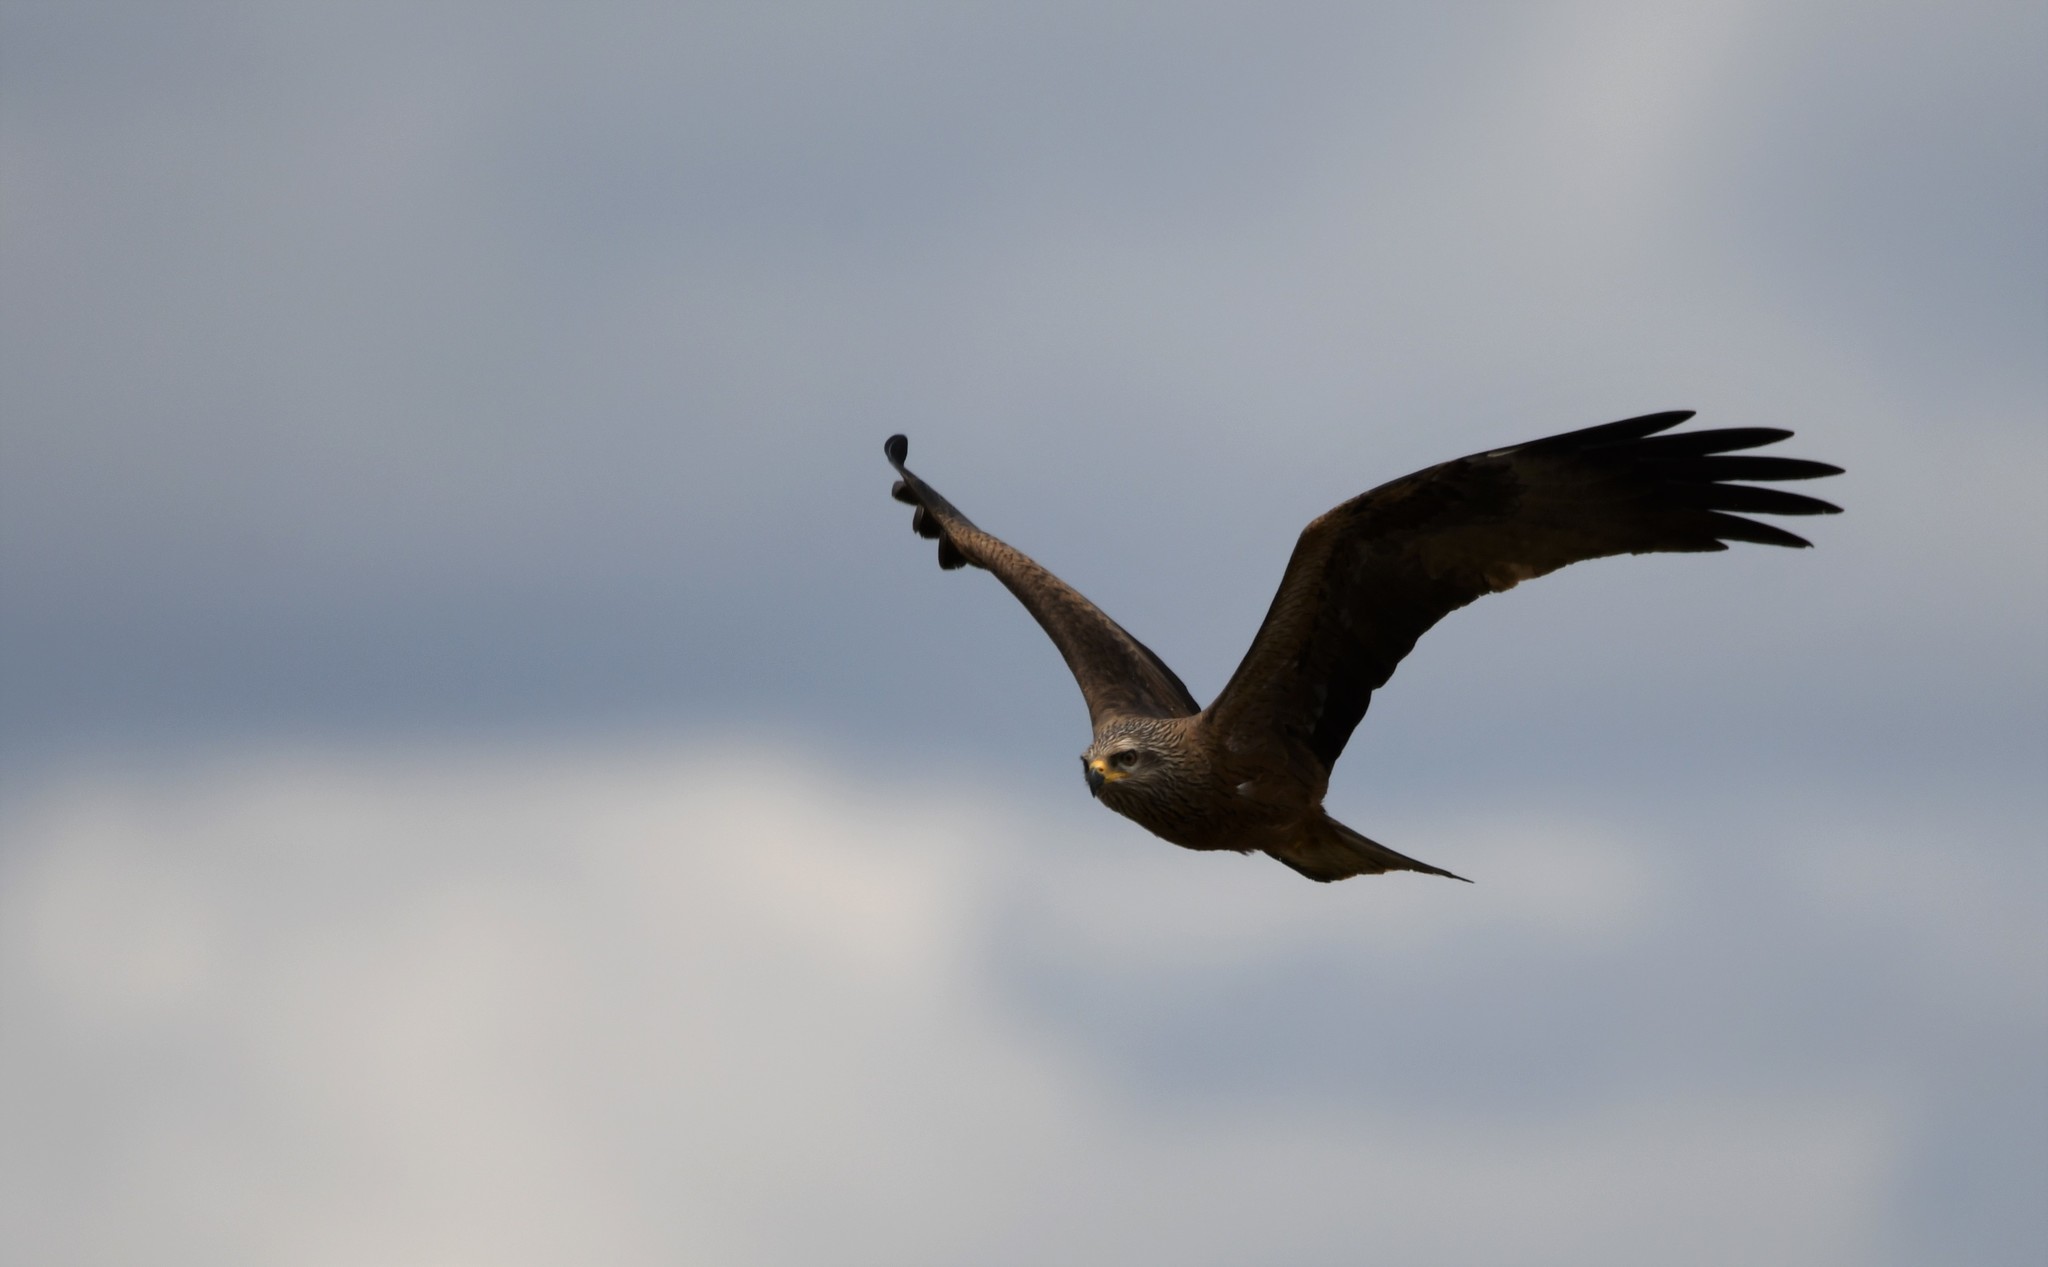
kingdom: Animalia
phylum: Chordata
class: Aves
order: Accipitriformes
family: Accipitridae
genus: Milvus
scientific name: Milvus migrans
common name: Black kite
